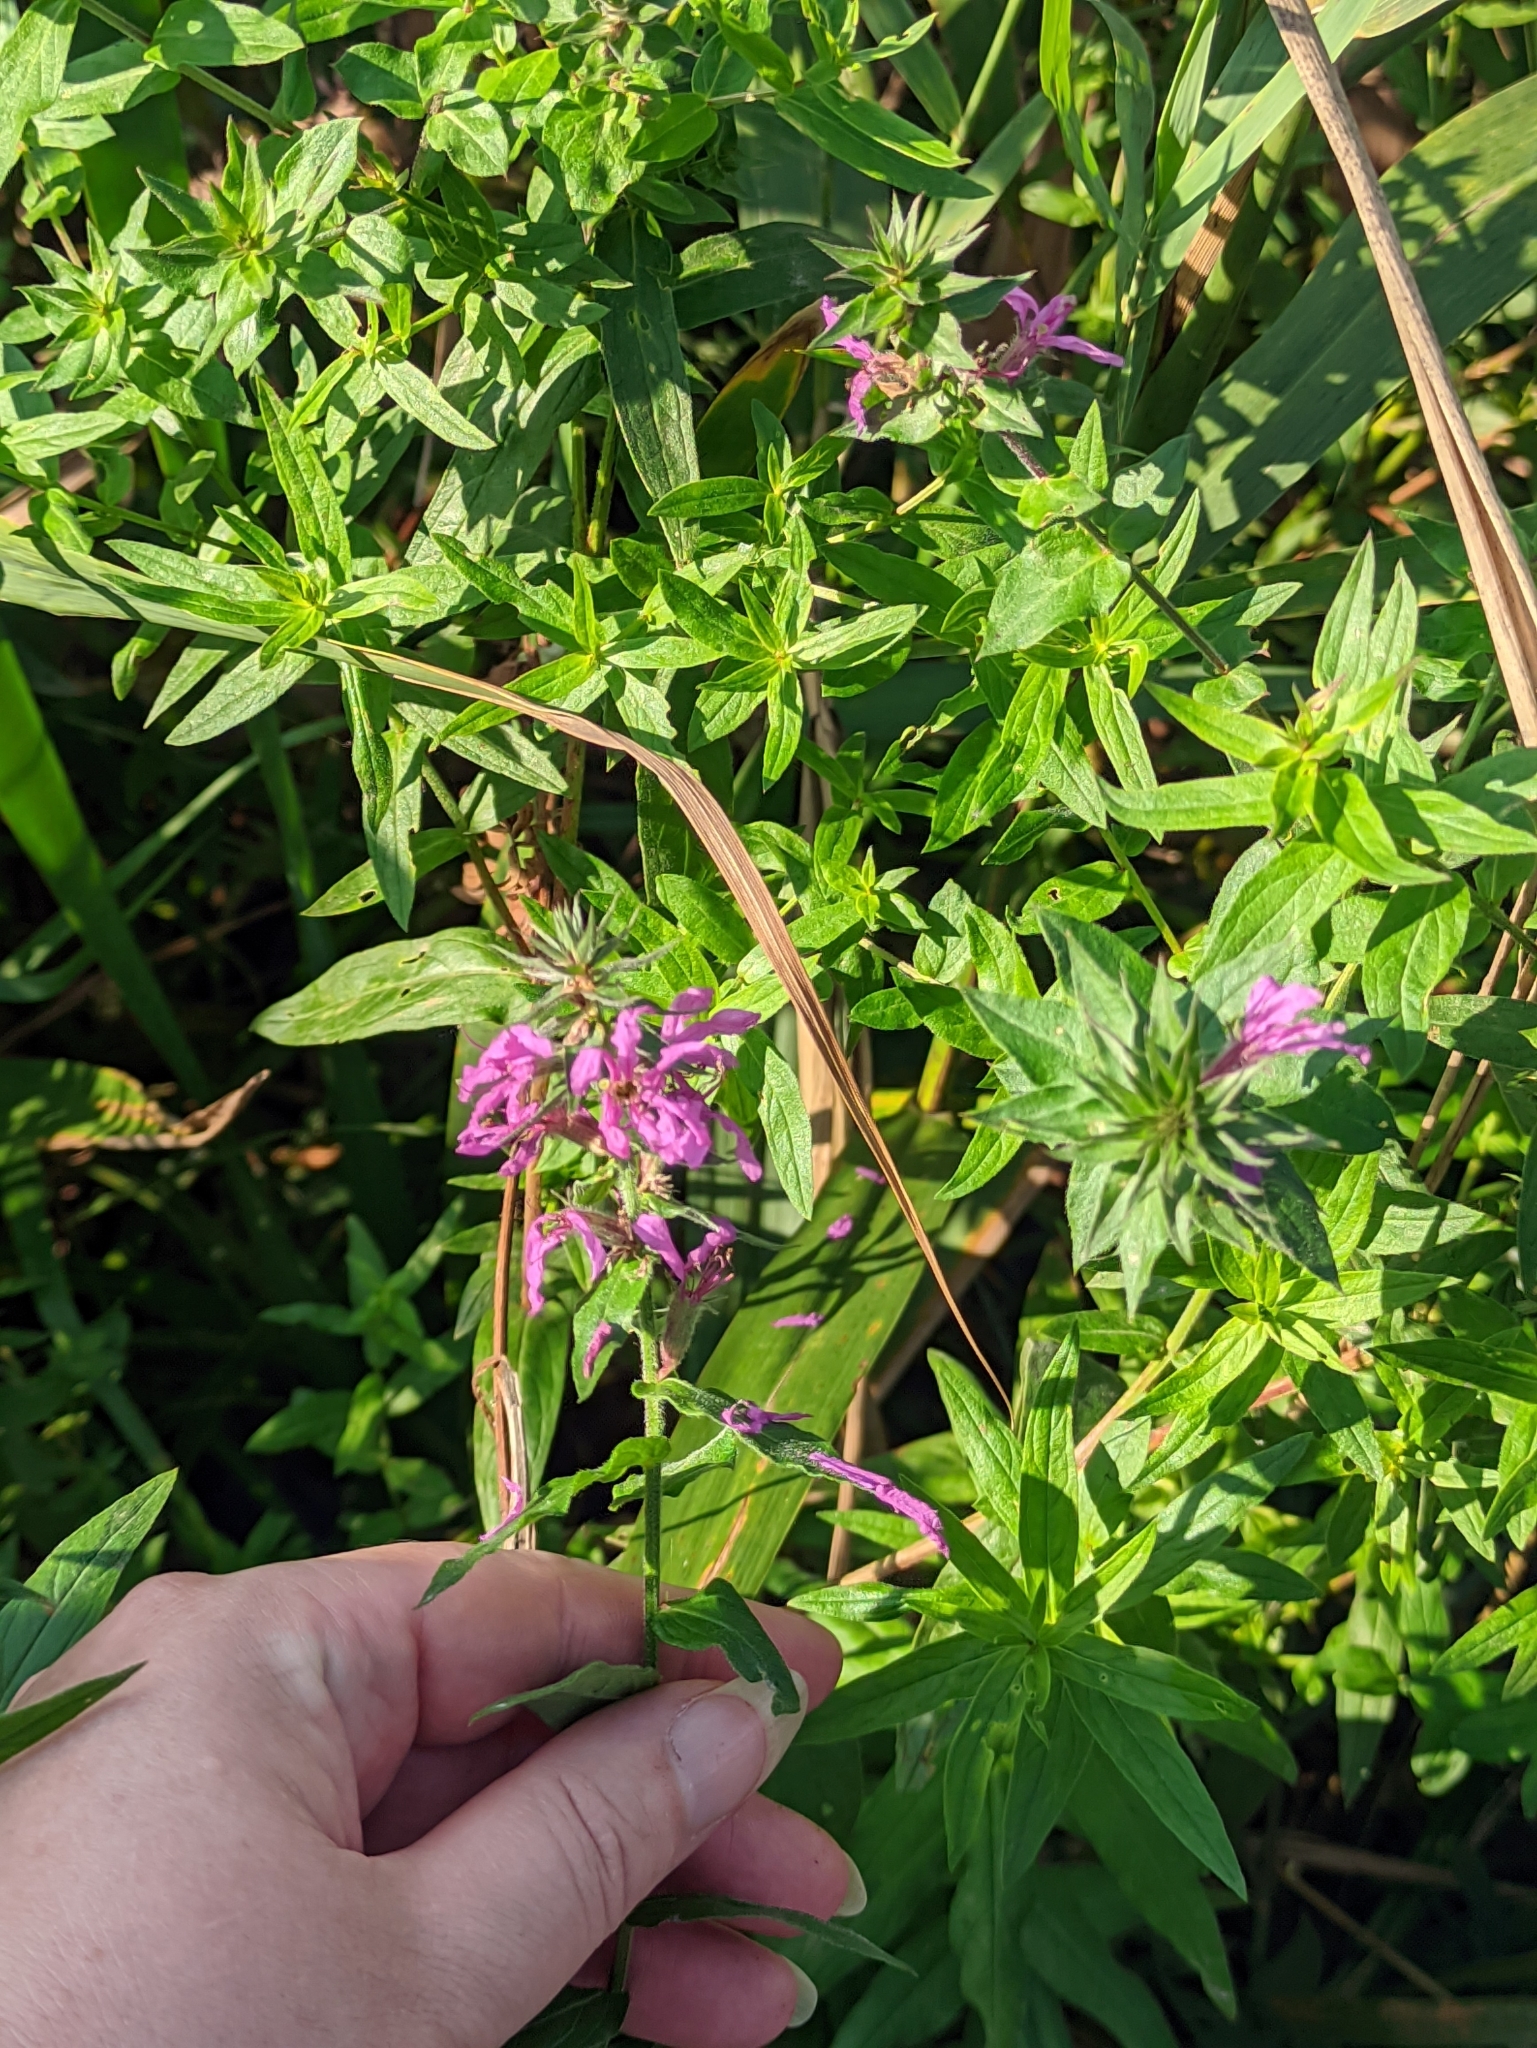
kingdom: Plantae
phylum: Tracheophyta
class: Magnoliopsida
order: Myrtales
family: Lythraceae
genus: Lythrum
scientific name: Lythrum salicaria
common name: Purple loosestrife
